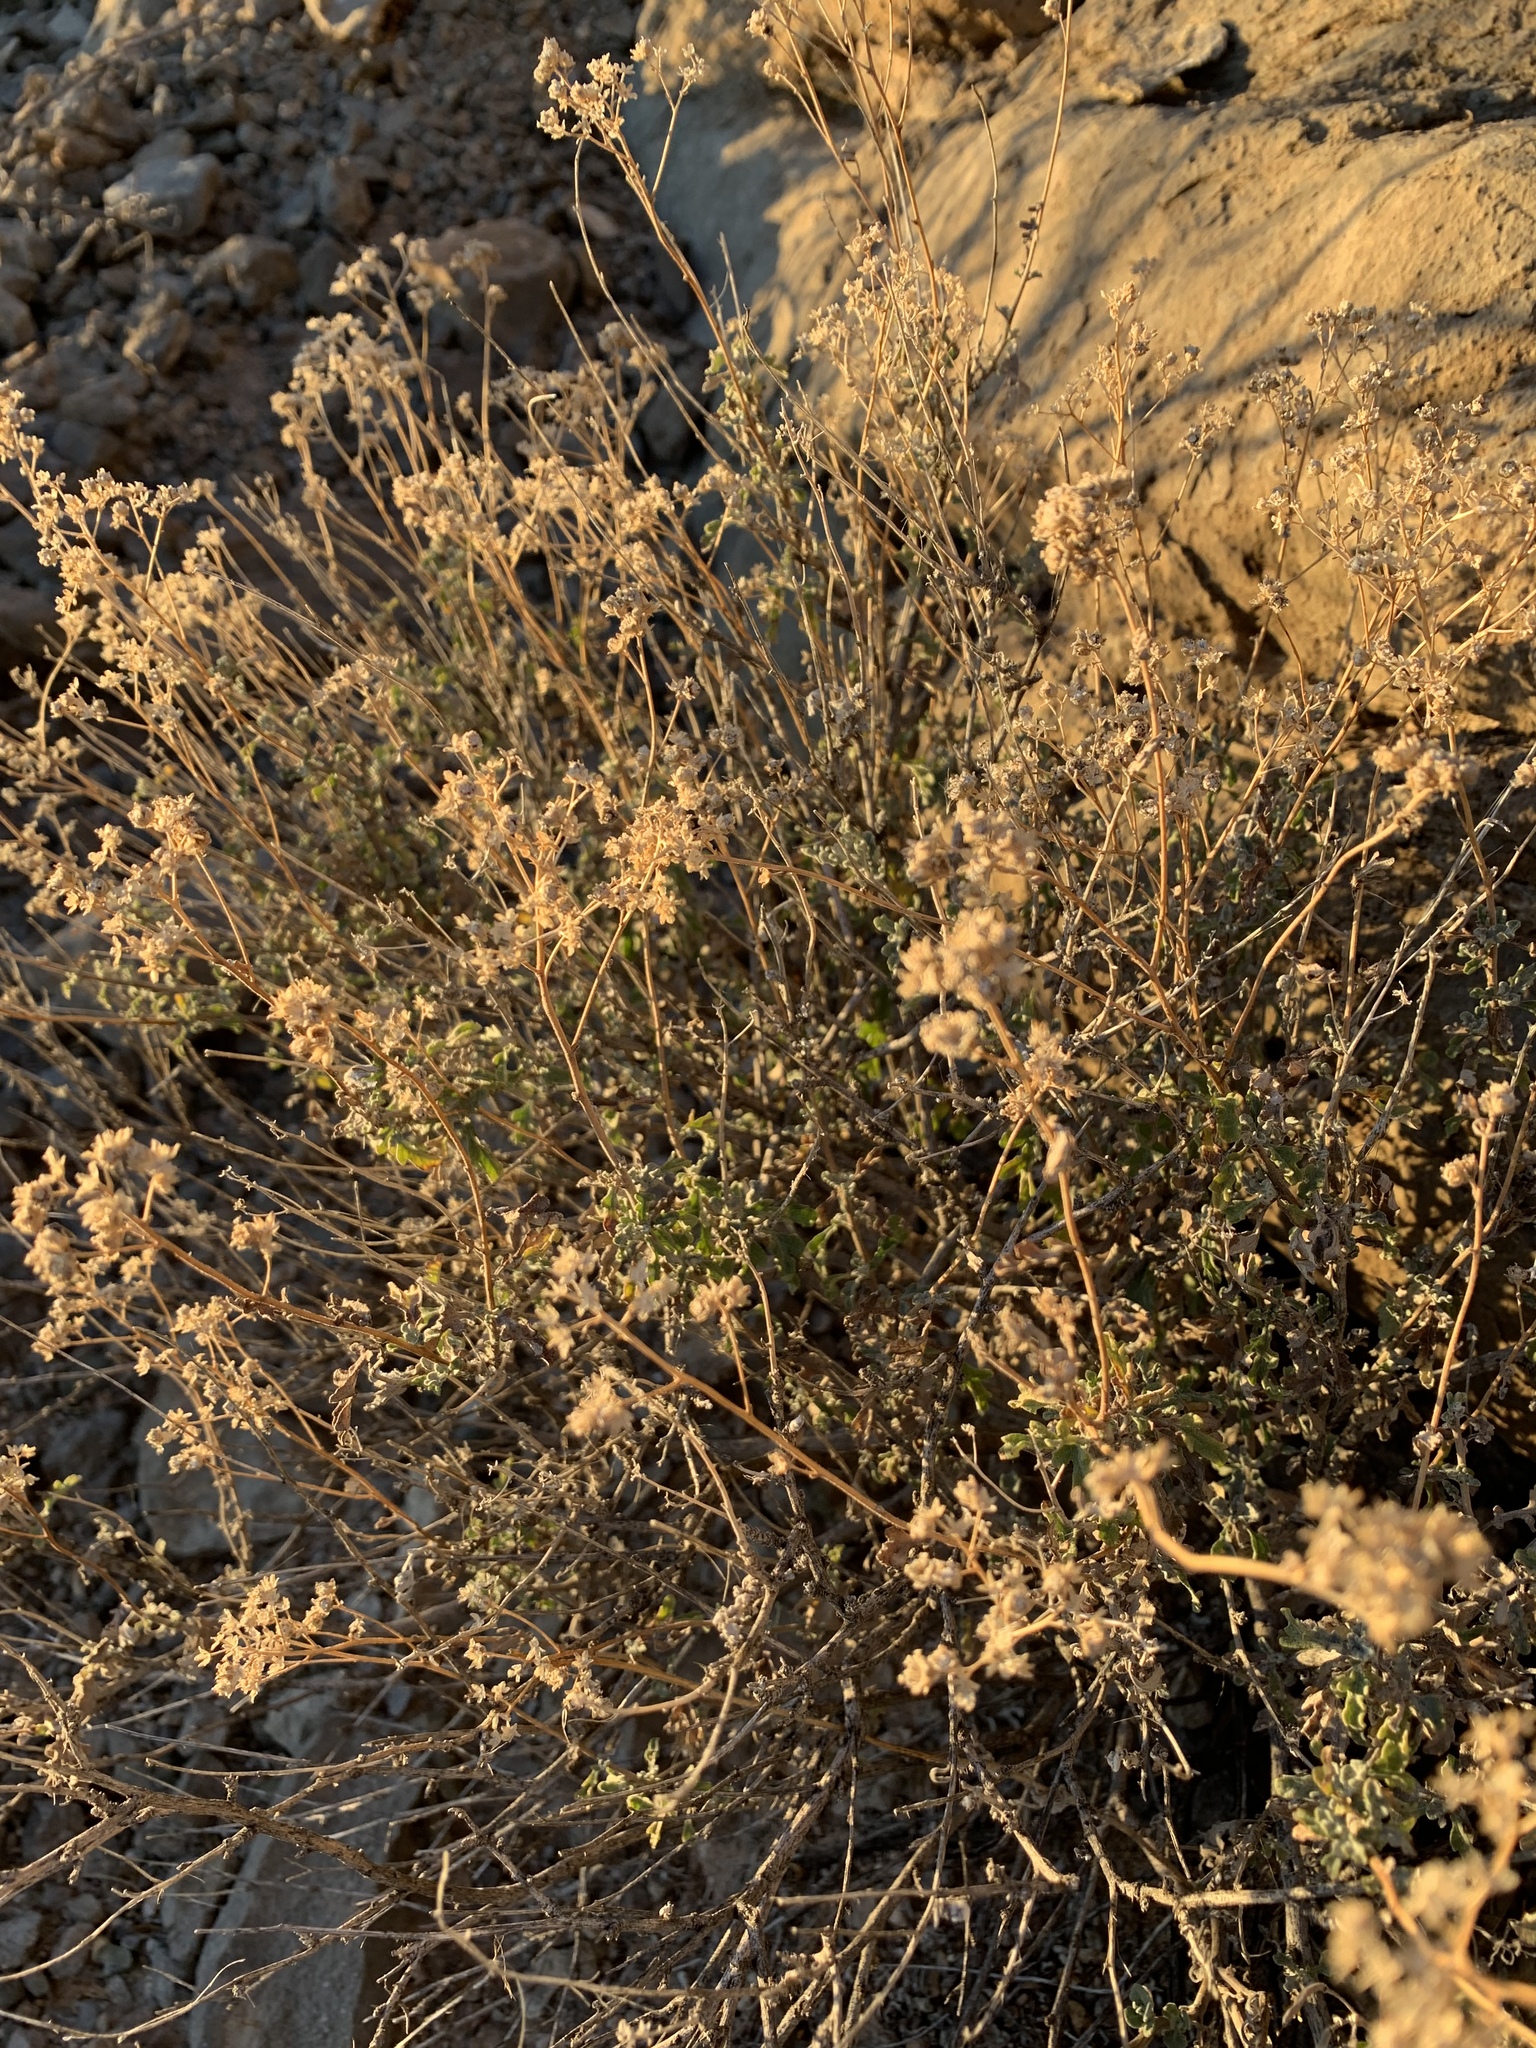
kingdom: Plantae
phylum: Tracheophyta
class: Magnoliopsida
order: Asterales
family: Asteraceae
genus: Parthenium
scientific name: Parthenium incanum
